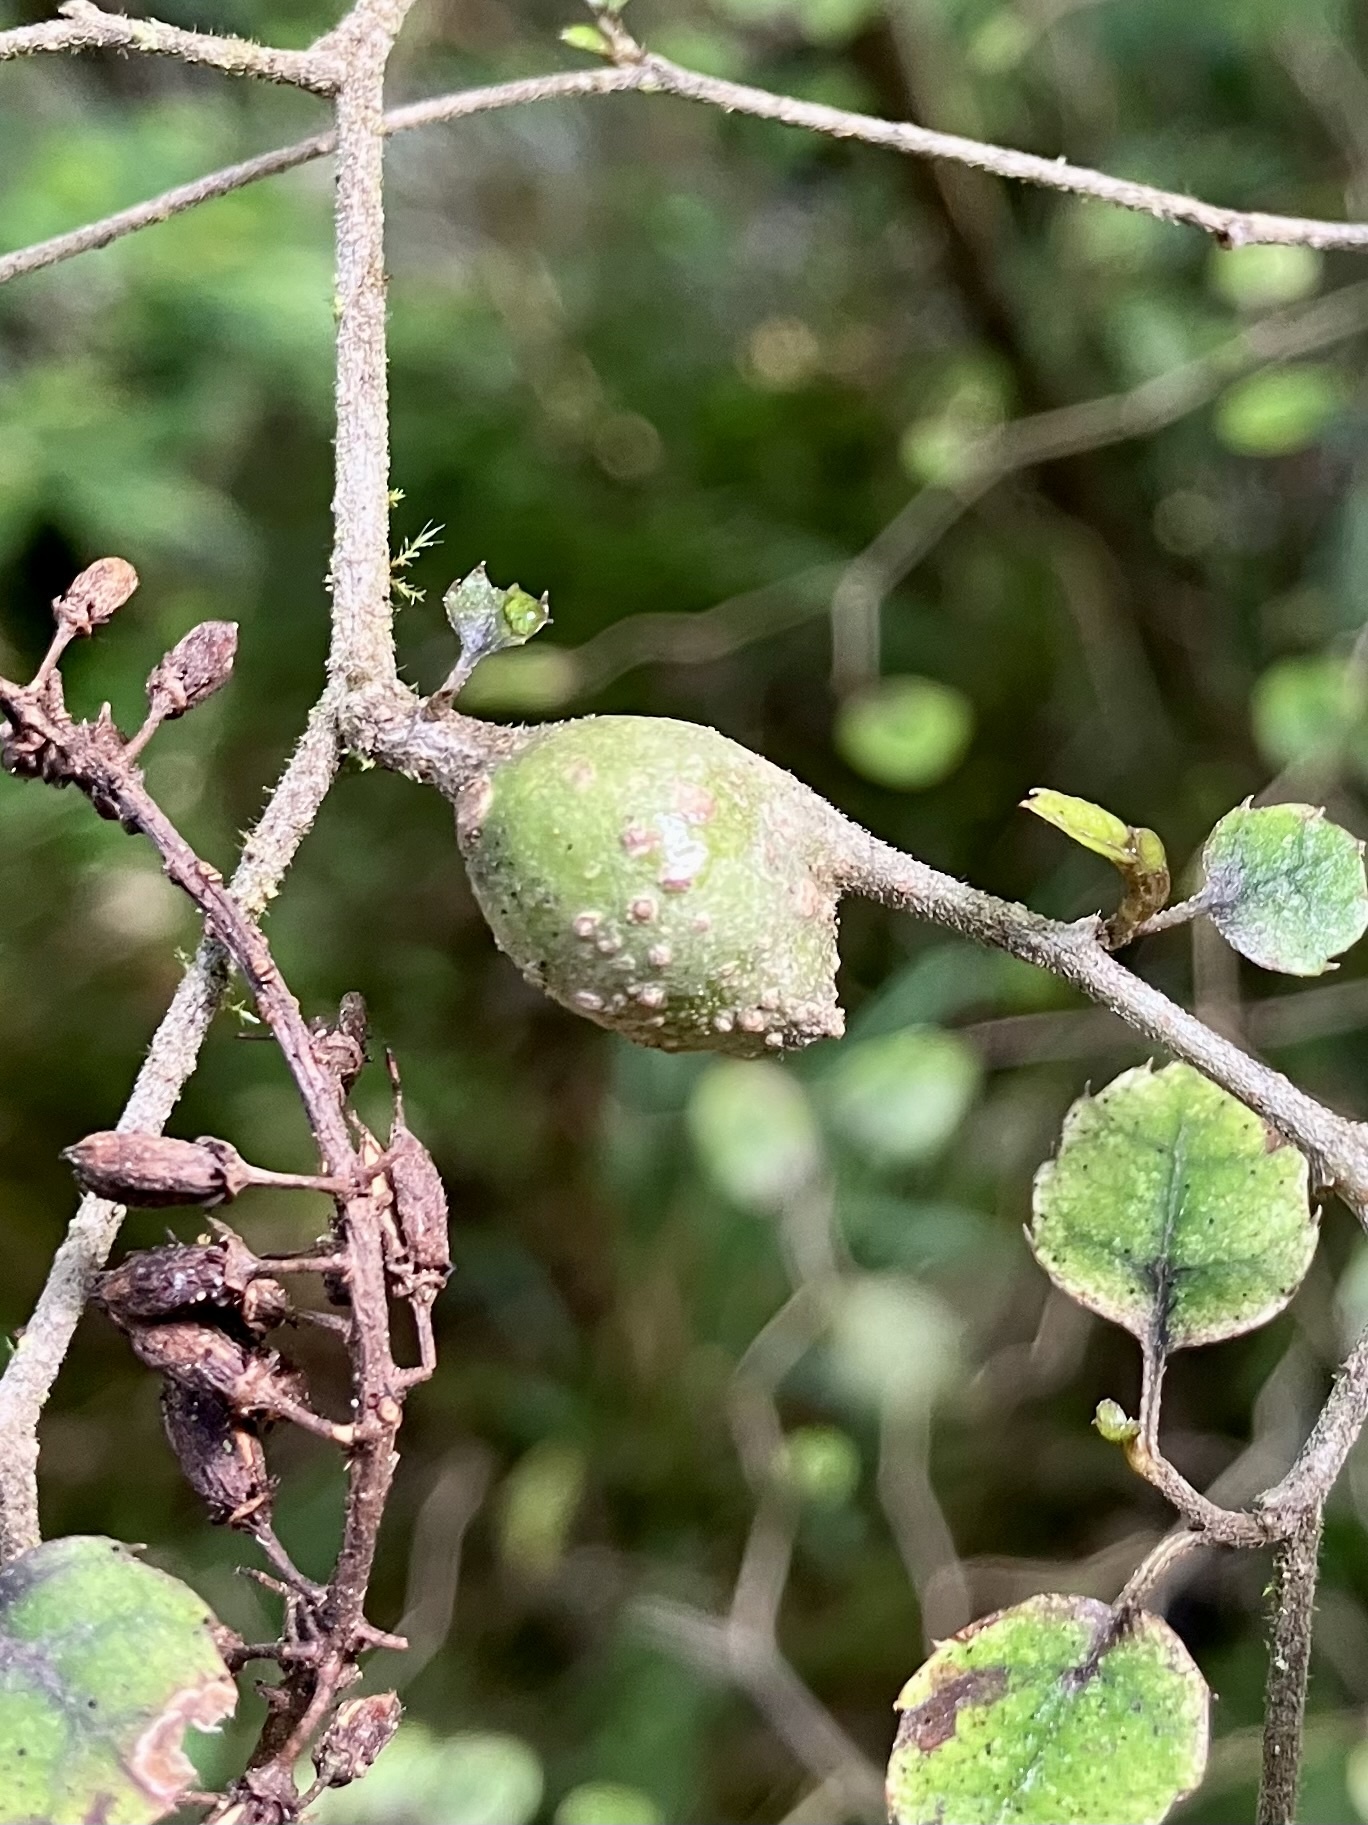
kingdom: Plantae
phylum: Tracheophyta
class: Magnoliopsida
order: Asterales
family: Rousseaceae
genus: Carpodetus
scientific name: Carpodetus serratus
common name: White mapau
